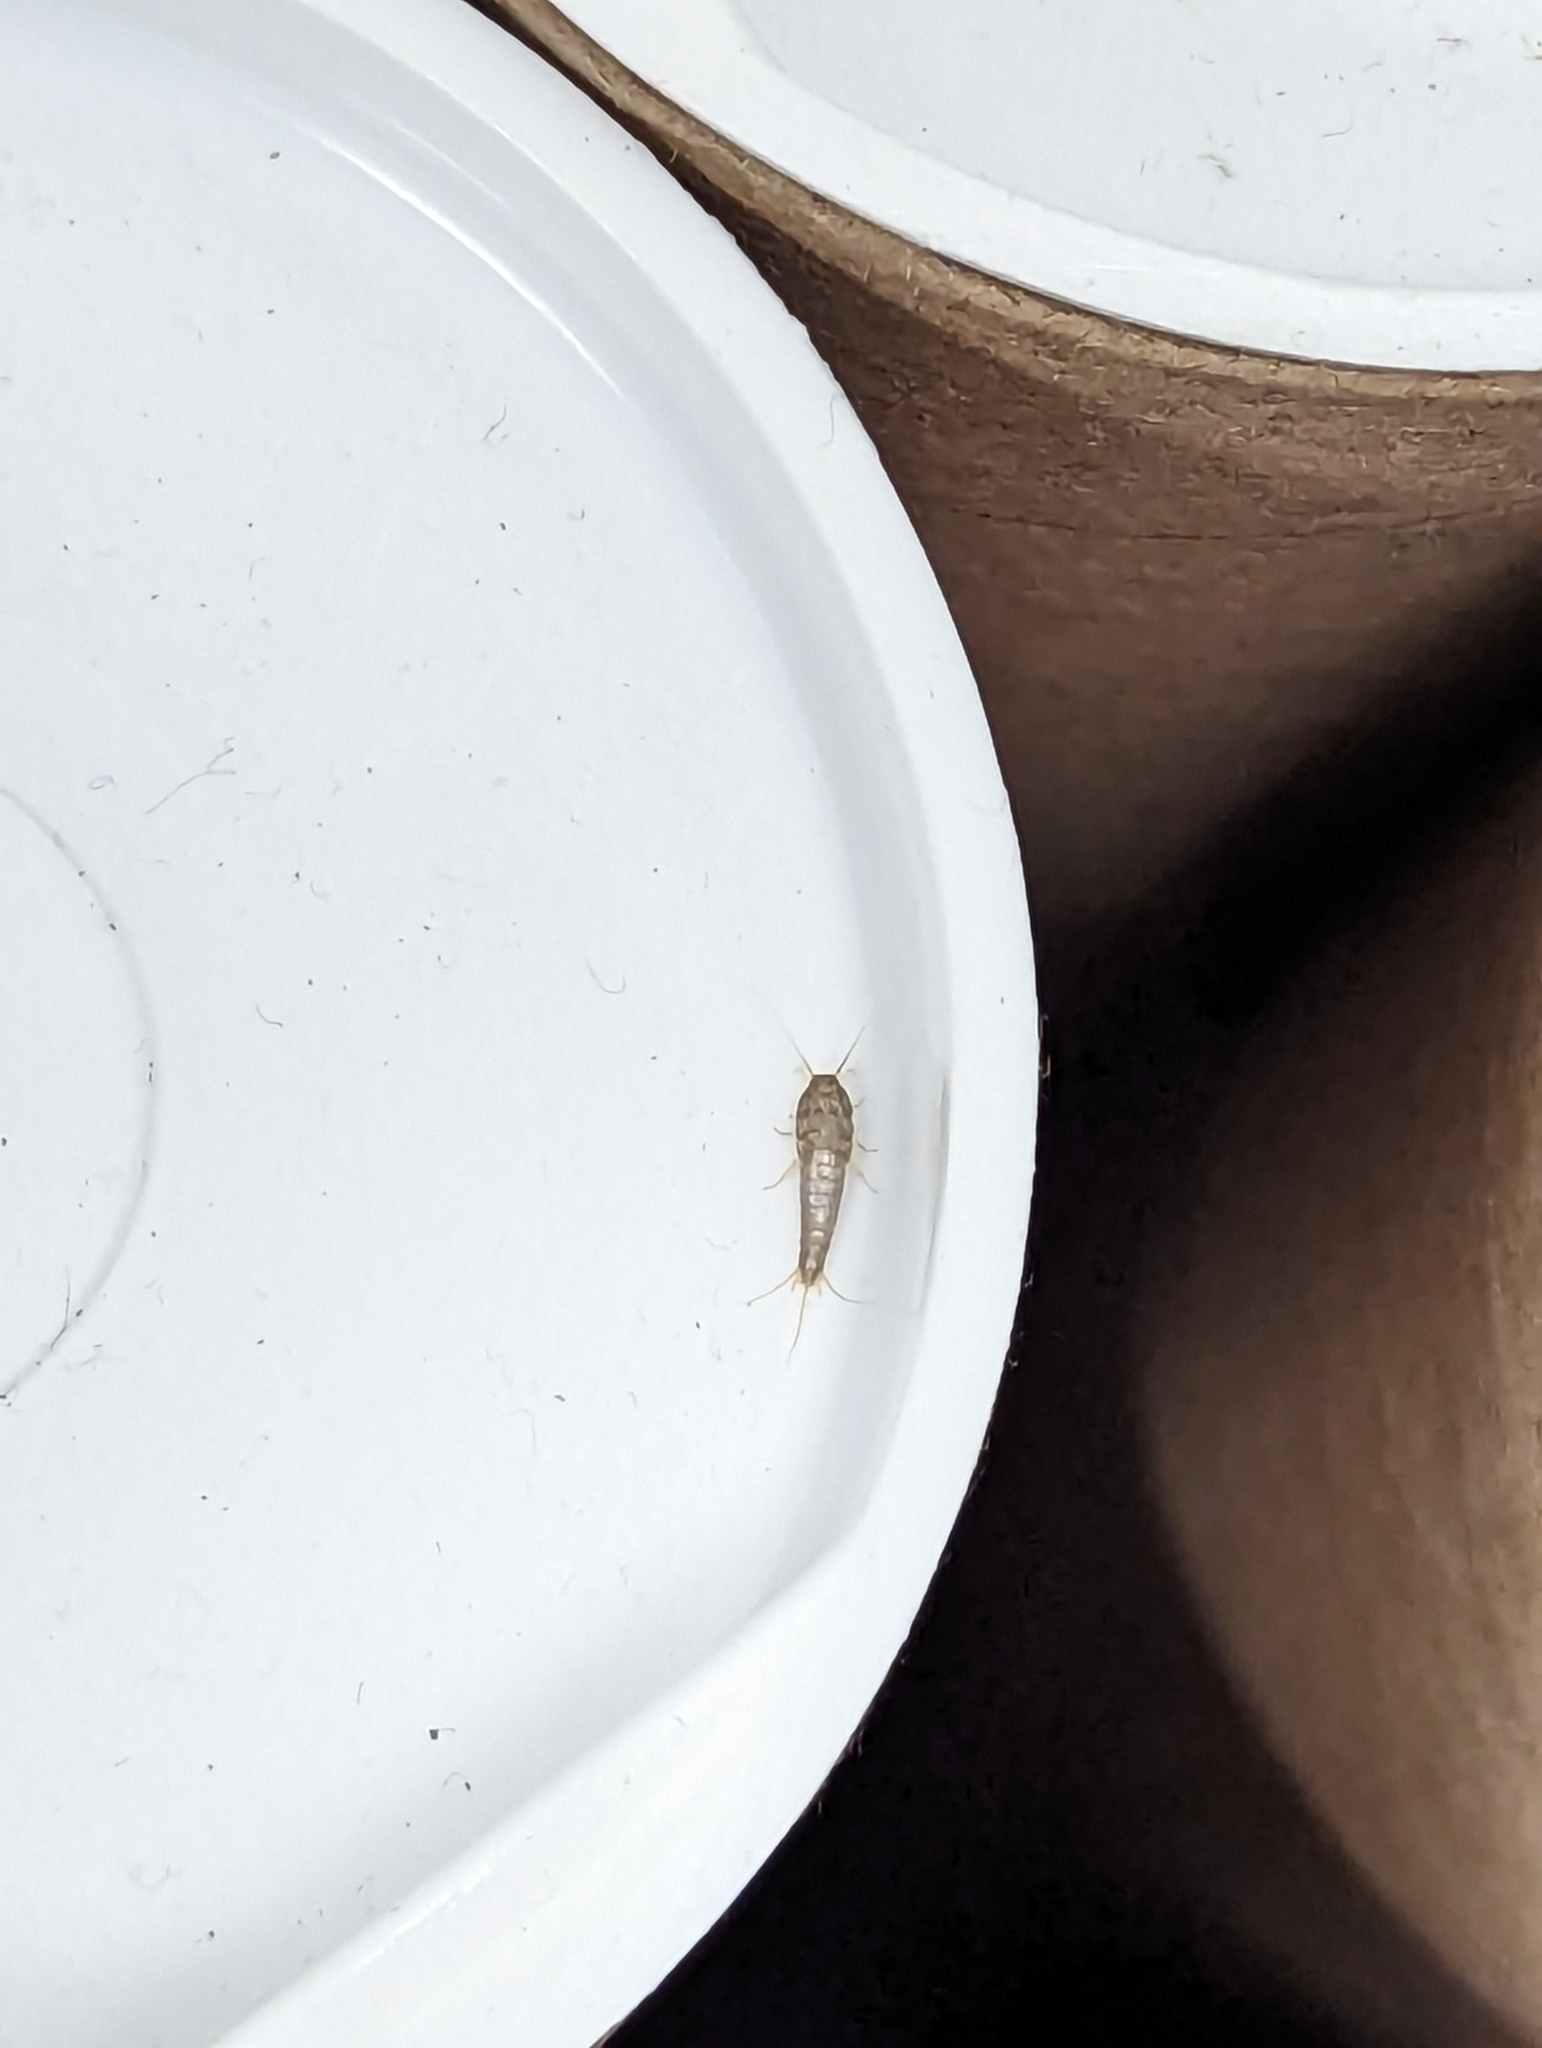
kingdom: Animalia
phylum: Arthropoda
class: Insecta
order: Zygentoma
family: Lepismatidae
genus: Lepisma
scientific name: Lepisma saccharinum
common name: Silverfish
